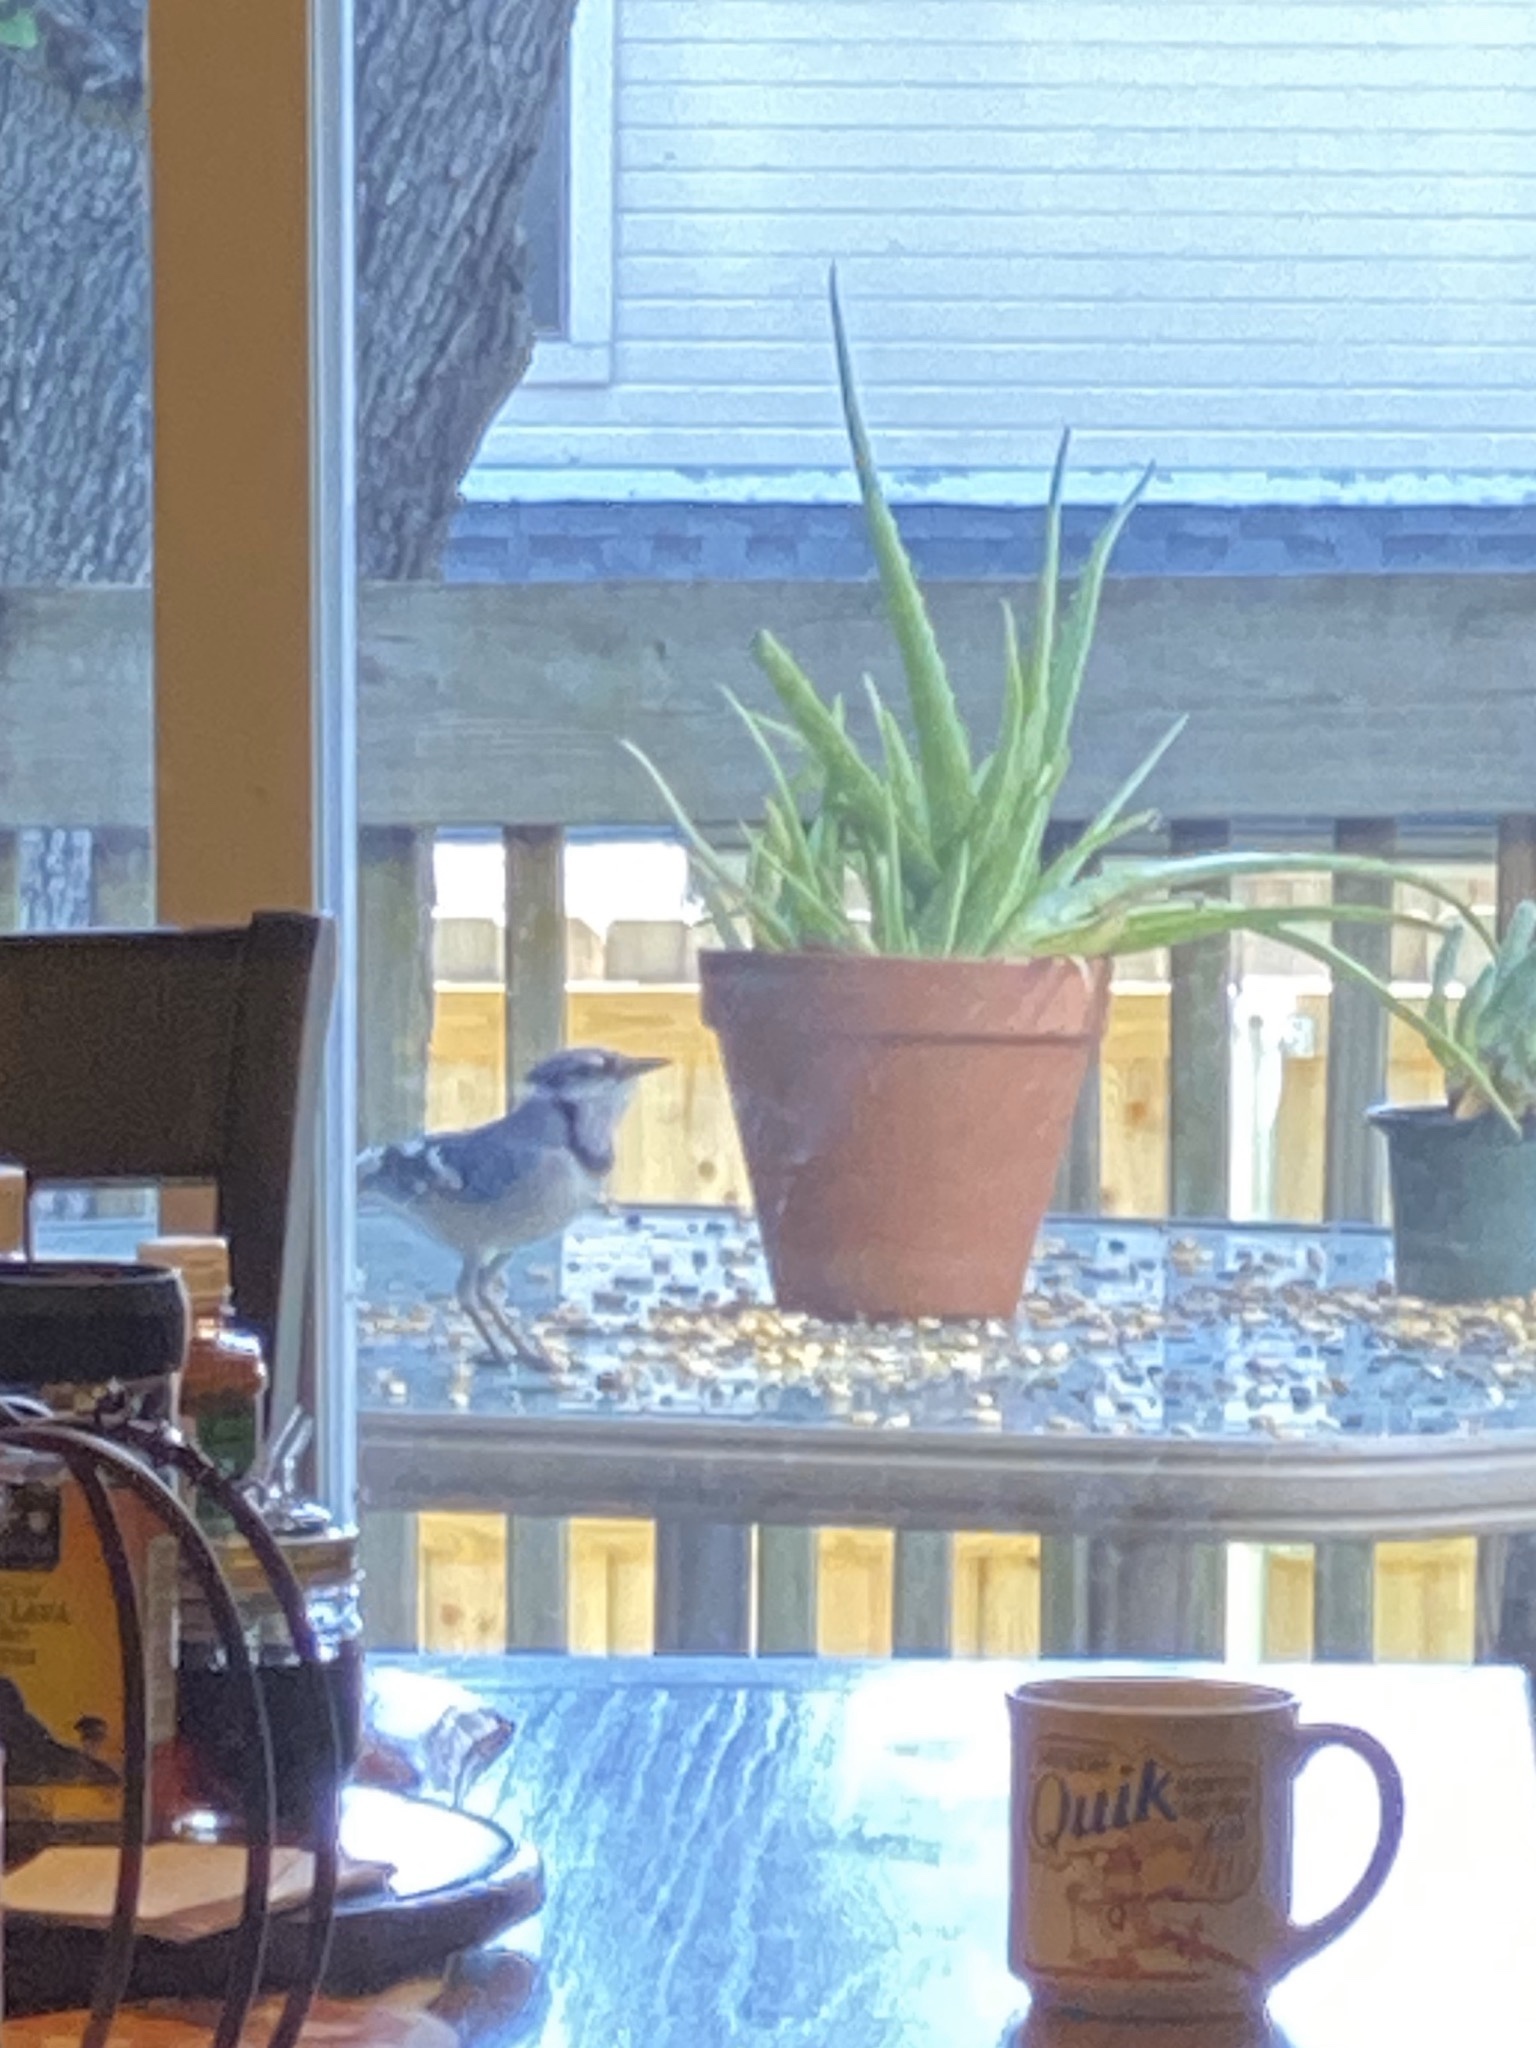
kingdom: Animalia
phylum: Chordata
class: Aves
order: Passeriformes
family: Corvidae
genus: Cyanocitta
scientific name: Cyanocitta cristata
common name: Blue jay
